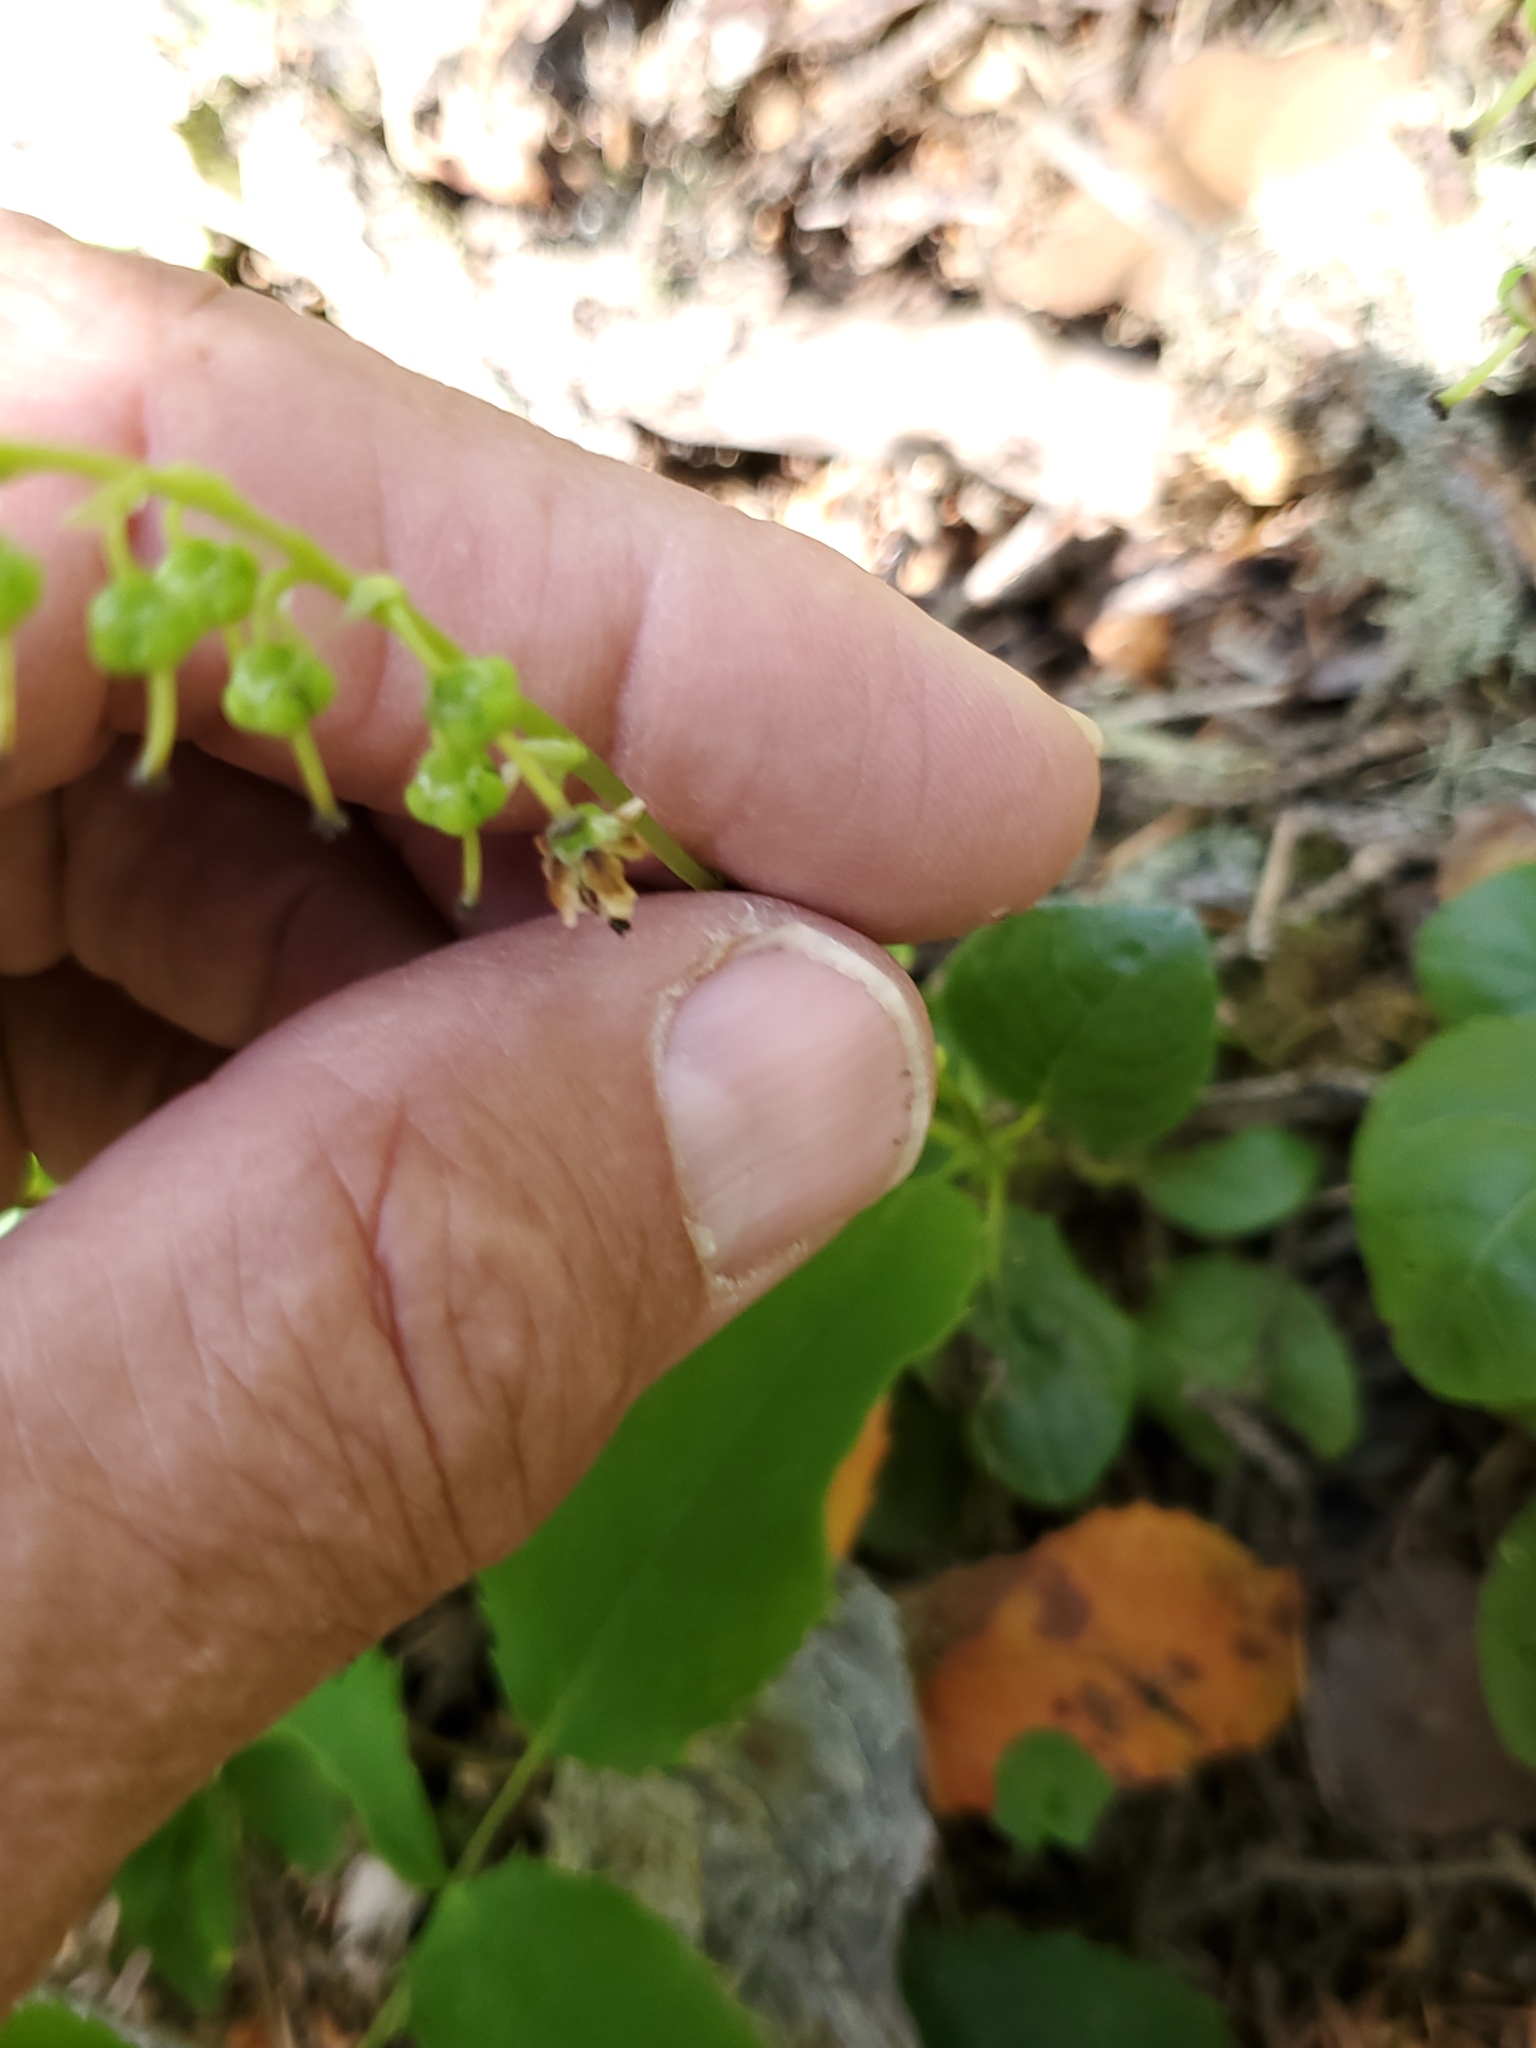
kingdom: Plantae
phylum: Tracheophyta
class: Magnoliopsida
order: Ericales
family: Ericaceae
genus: Orthilia
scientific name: Orthilia secunda
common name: One-sided orthilia
